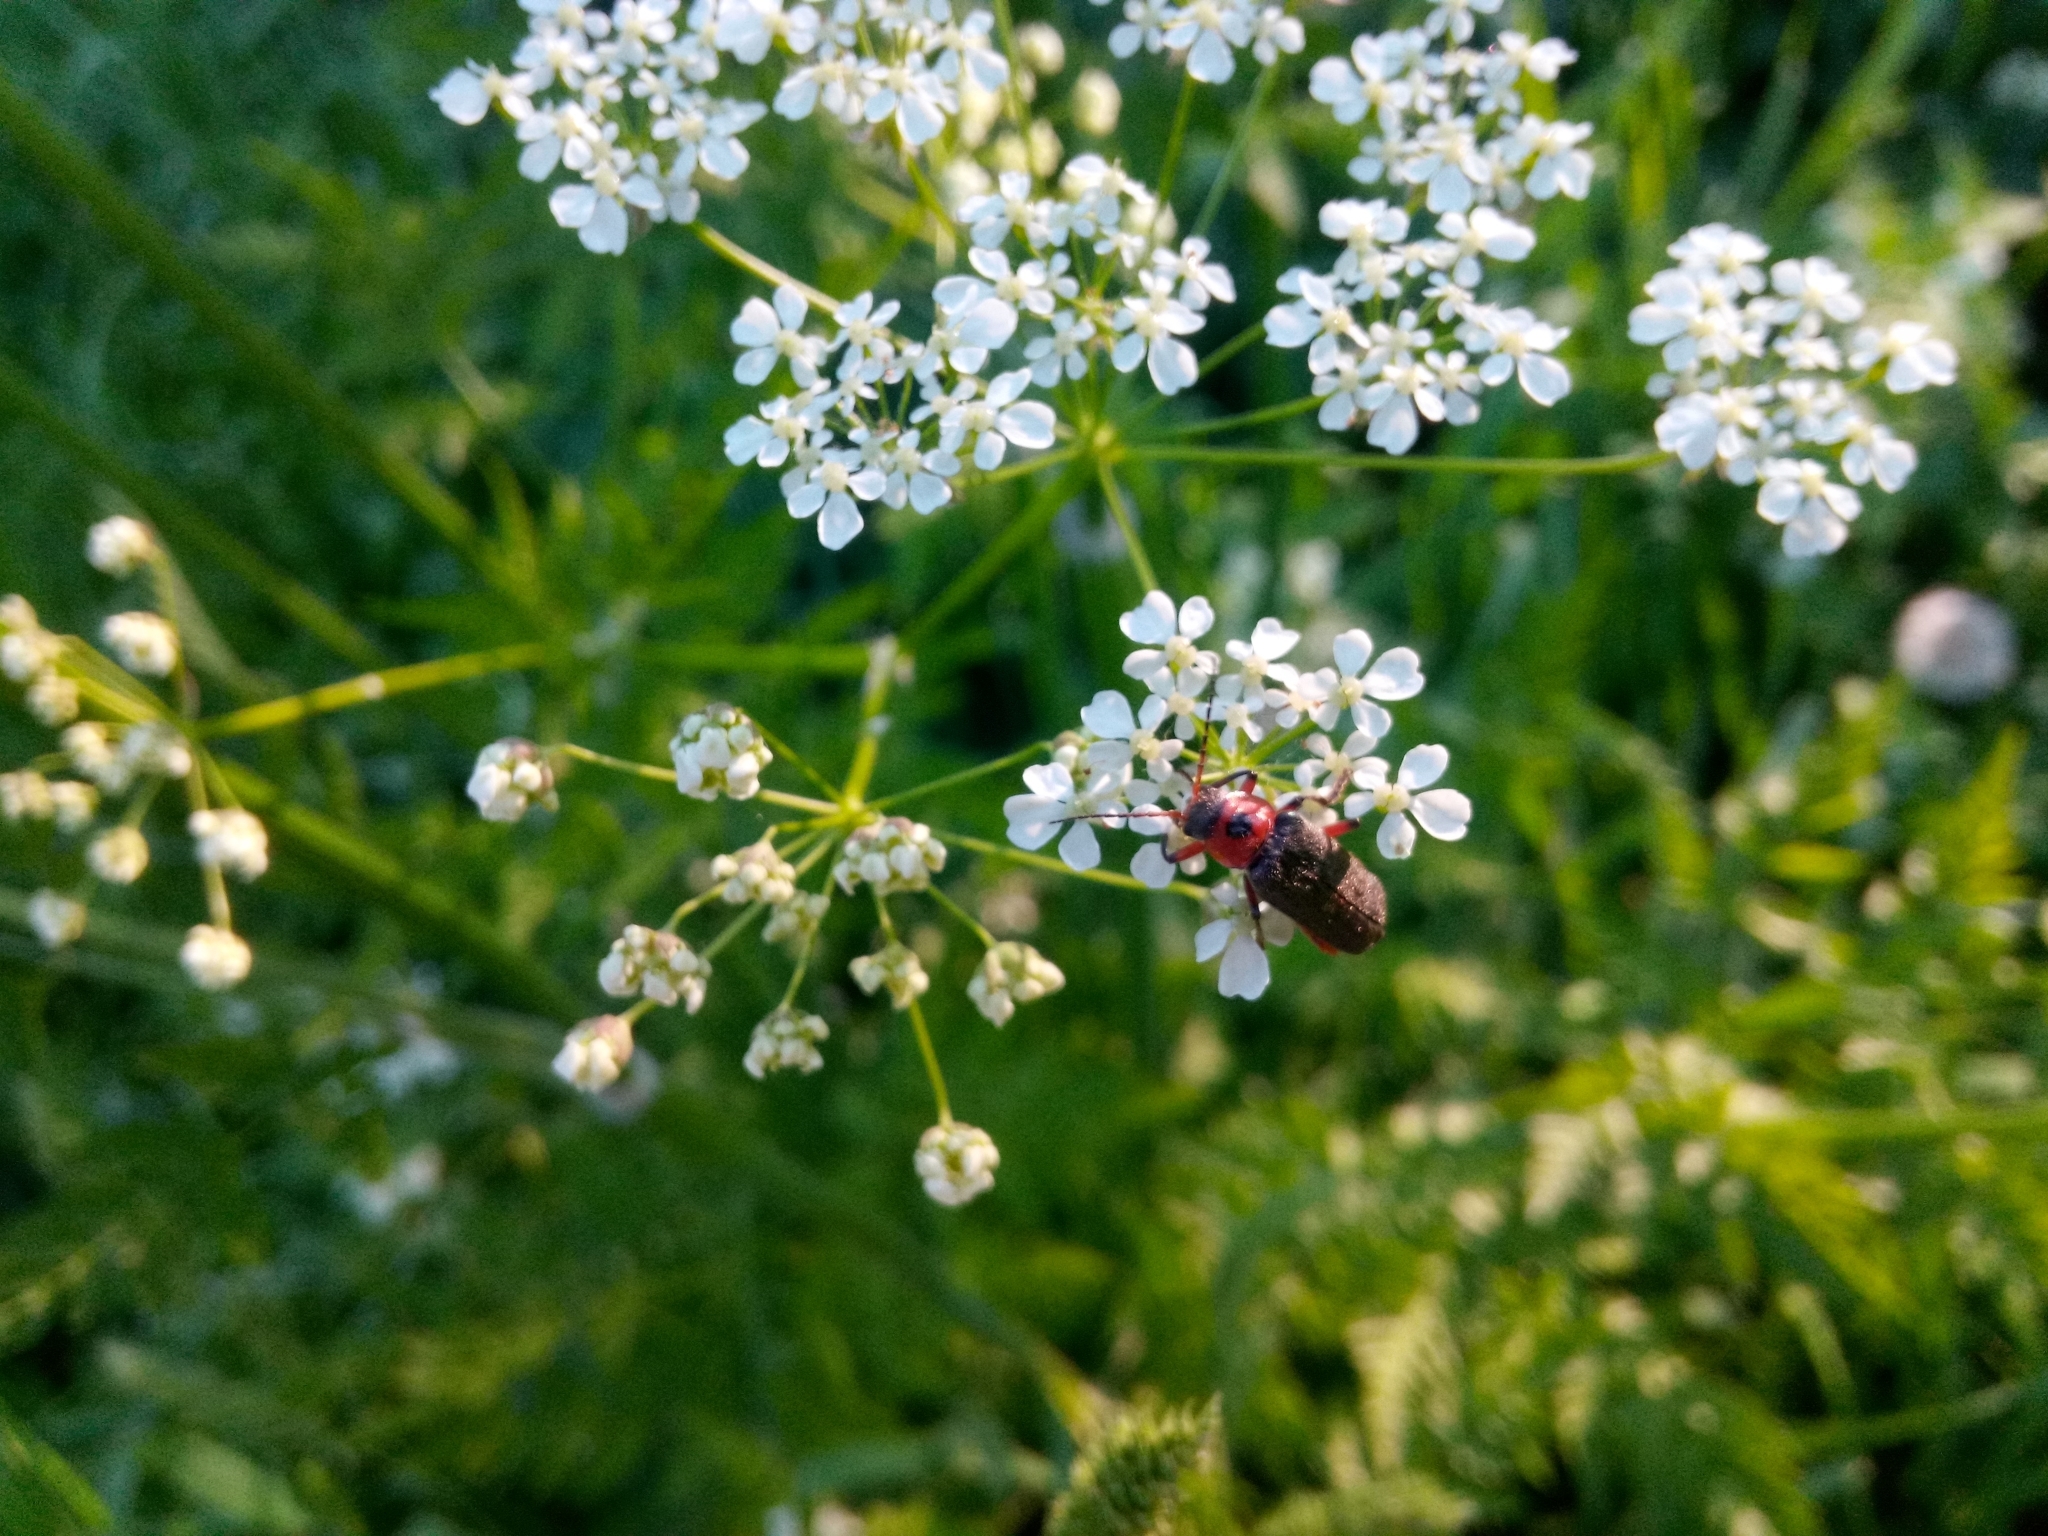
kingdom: Animalia
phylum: Arthropoda
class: Insecta
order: Coleoptera
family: Cantharidae
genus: Cantharis
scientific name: Cantharis rustica
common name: Soldier beetle
